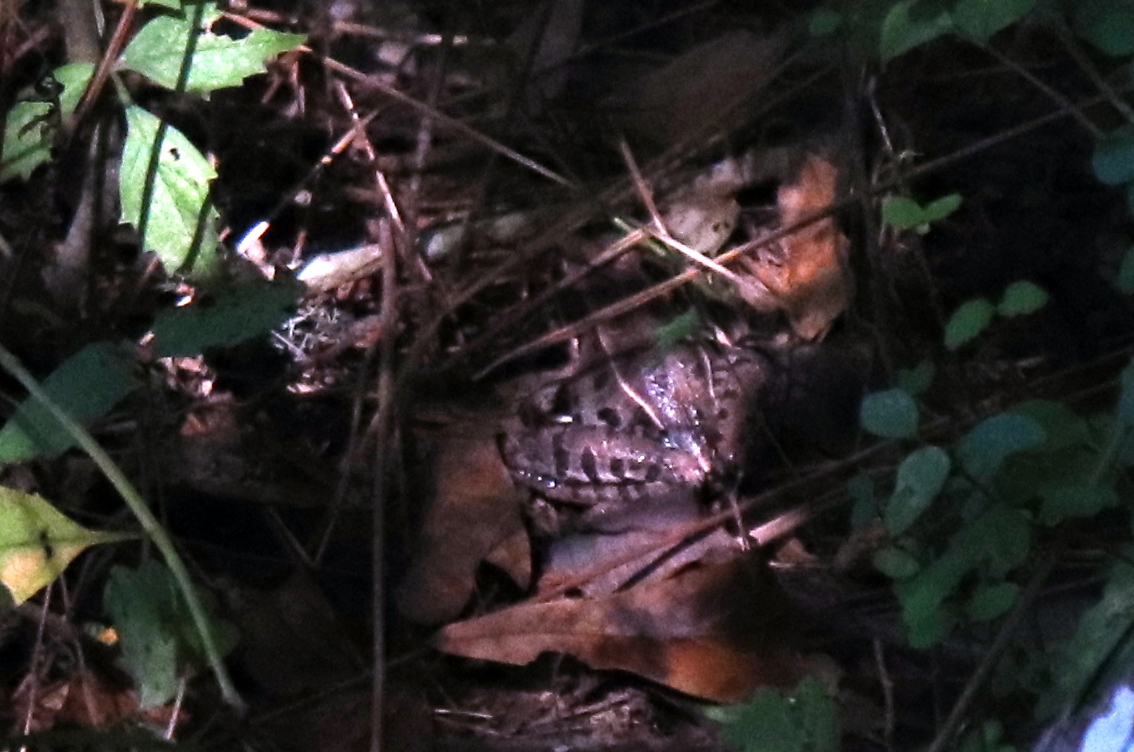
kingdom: Animalia
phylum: Chordata
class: Amphibia
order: Anura
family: Ranidae
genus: Lithobates
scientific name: Lithobates sphenocephalus
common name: Southern leopard frog
